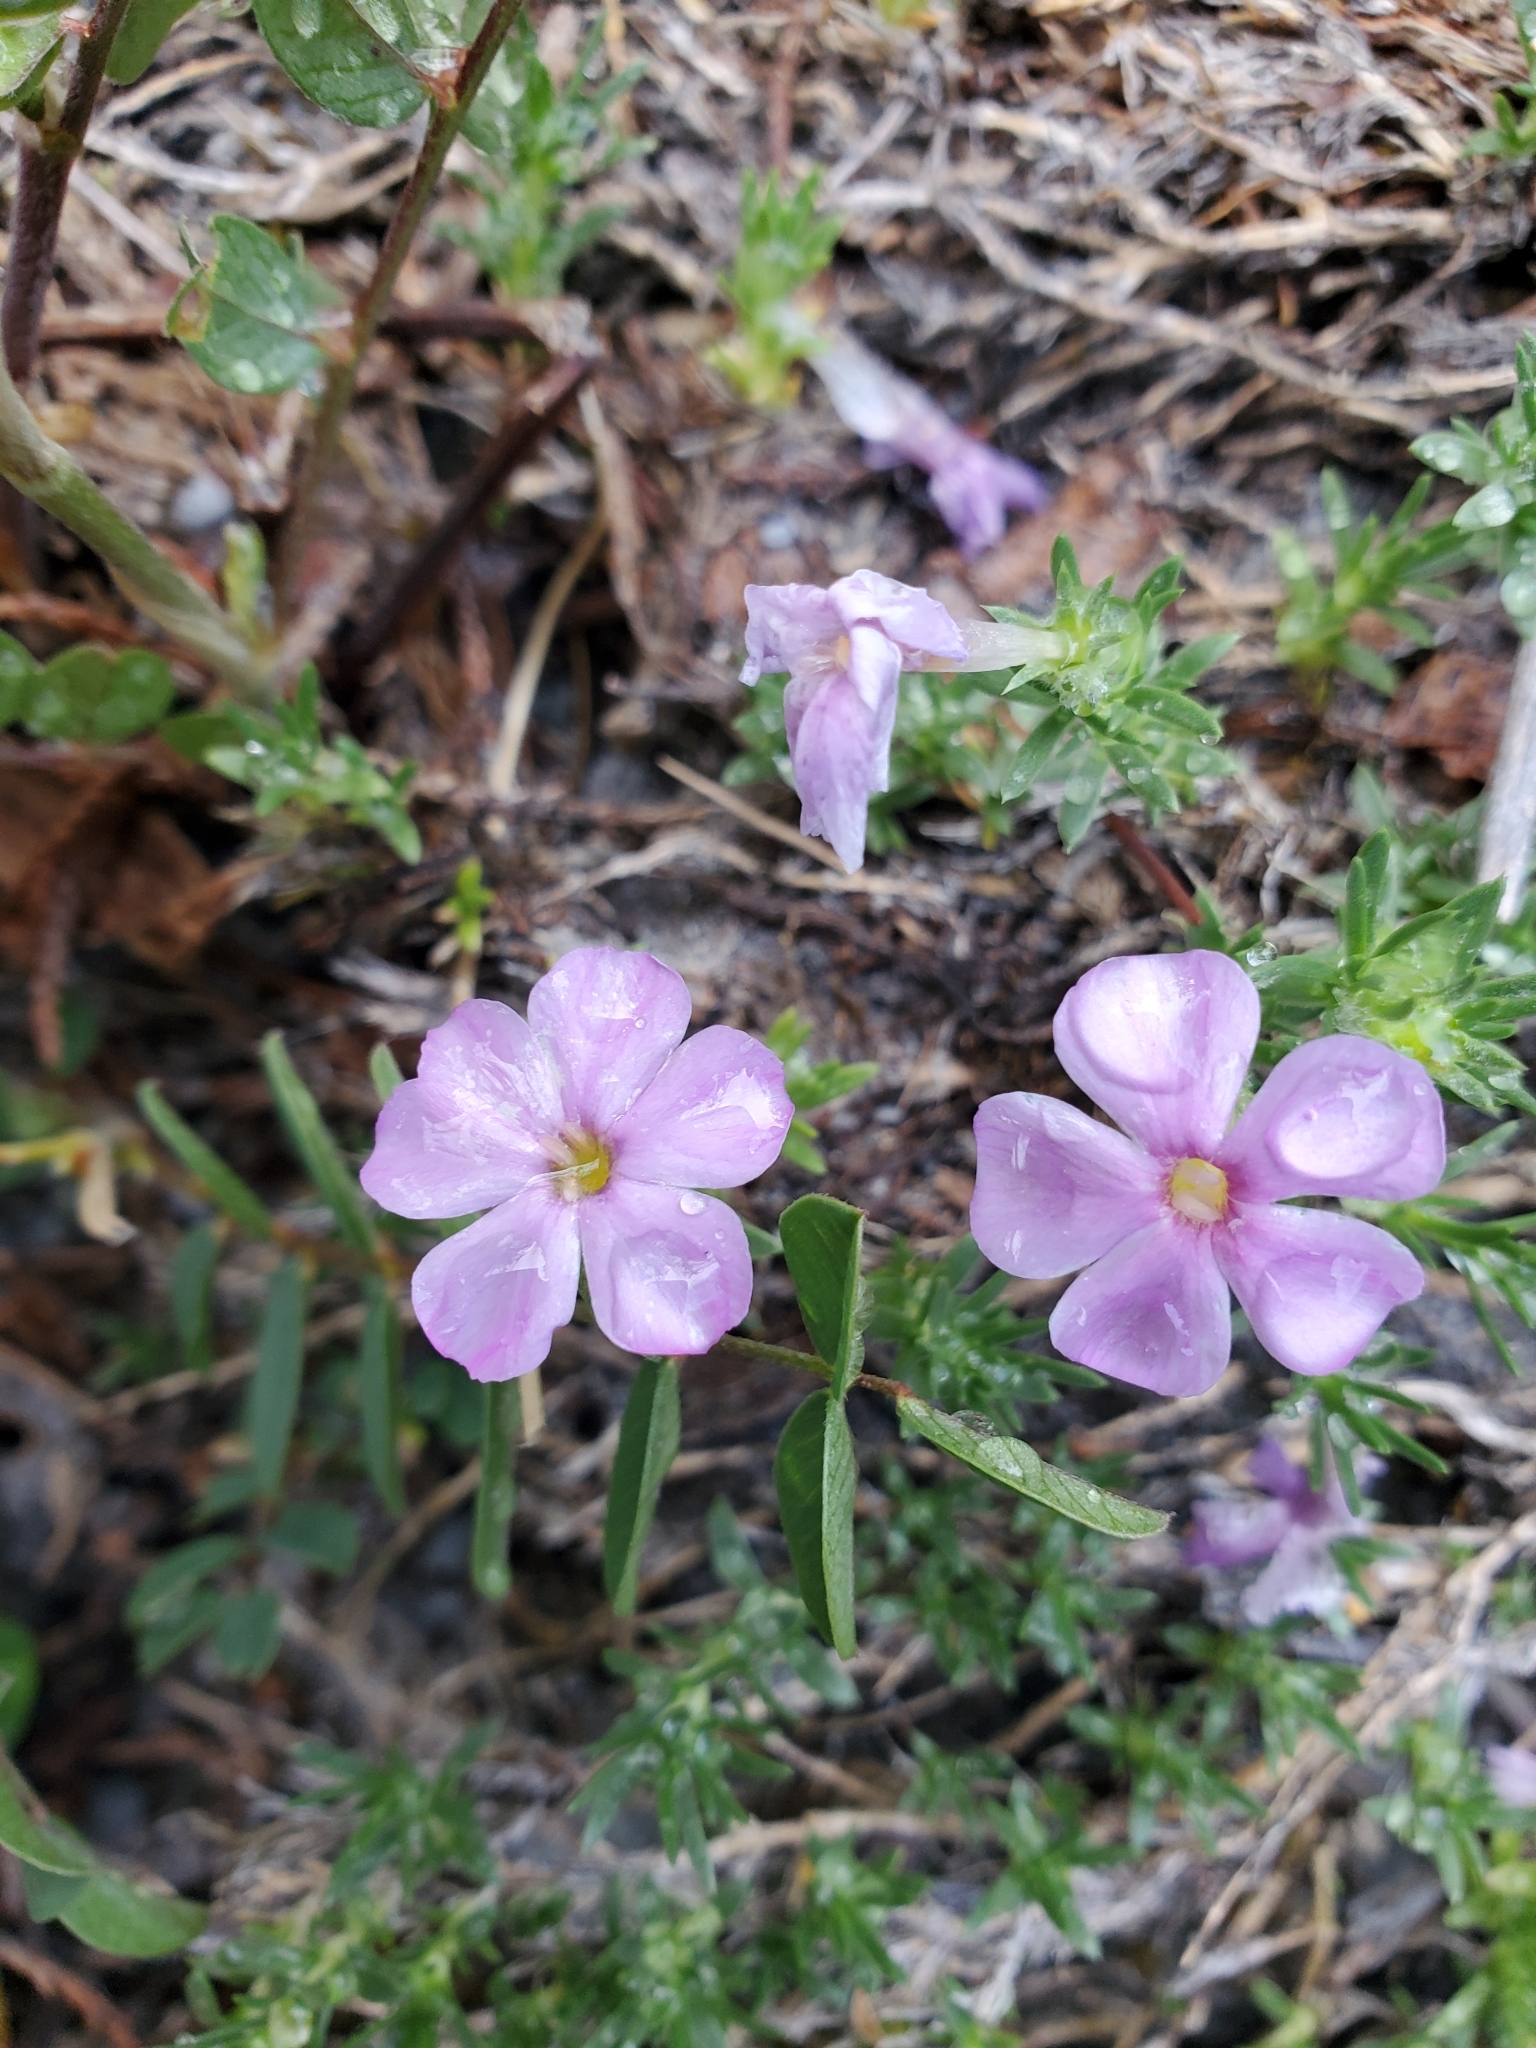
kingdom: Plantae
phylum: Tracheophyta
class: Magnoliopsida
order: Ericales
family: Polemoniaceae
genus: Phlox
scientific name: Phlox diffusa
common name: Mat phlox
